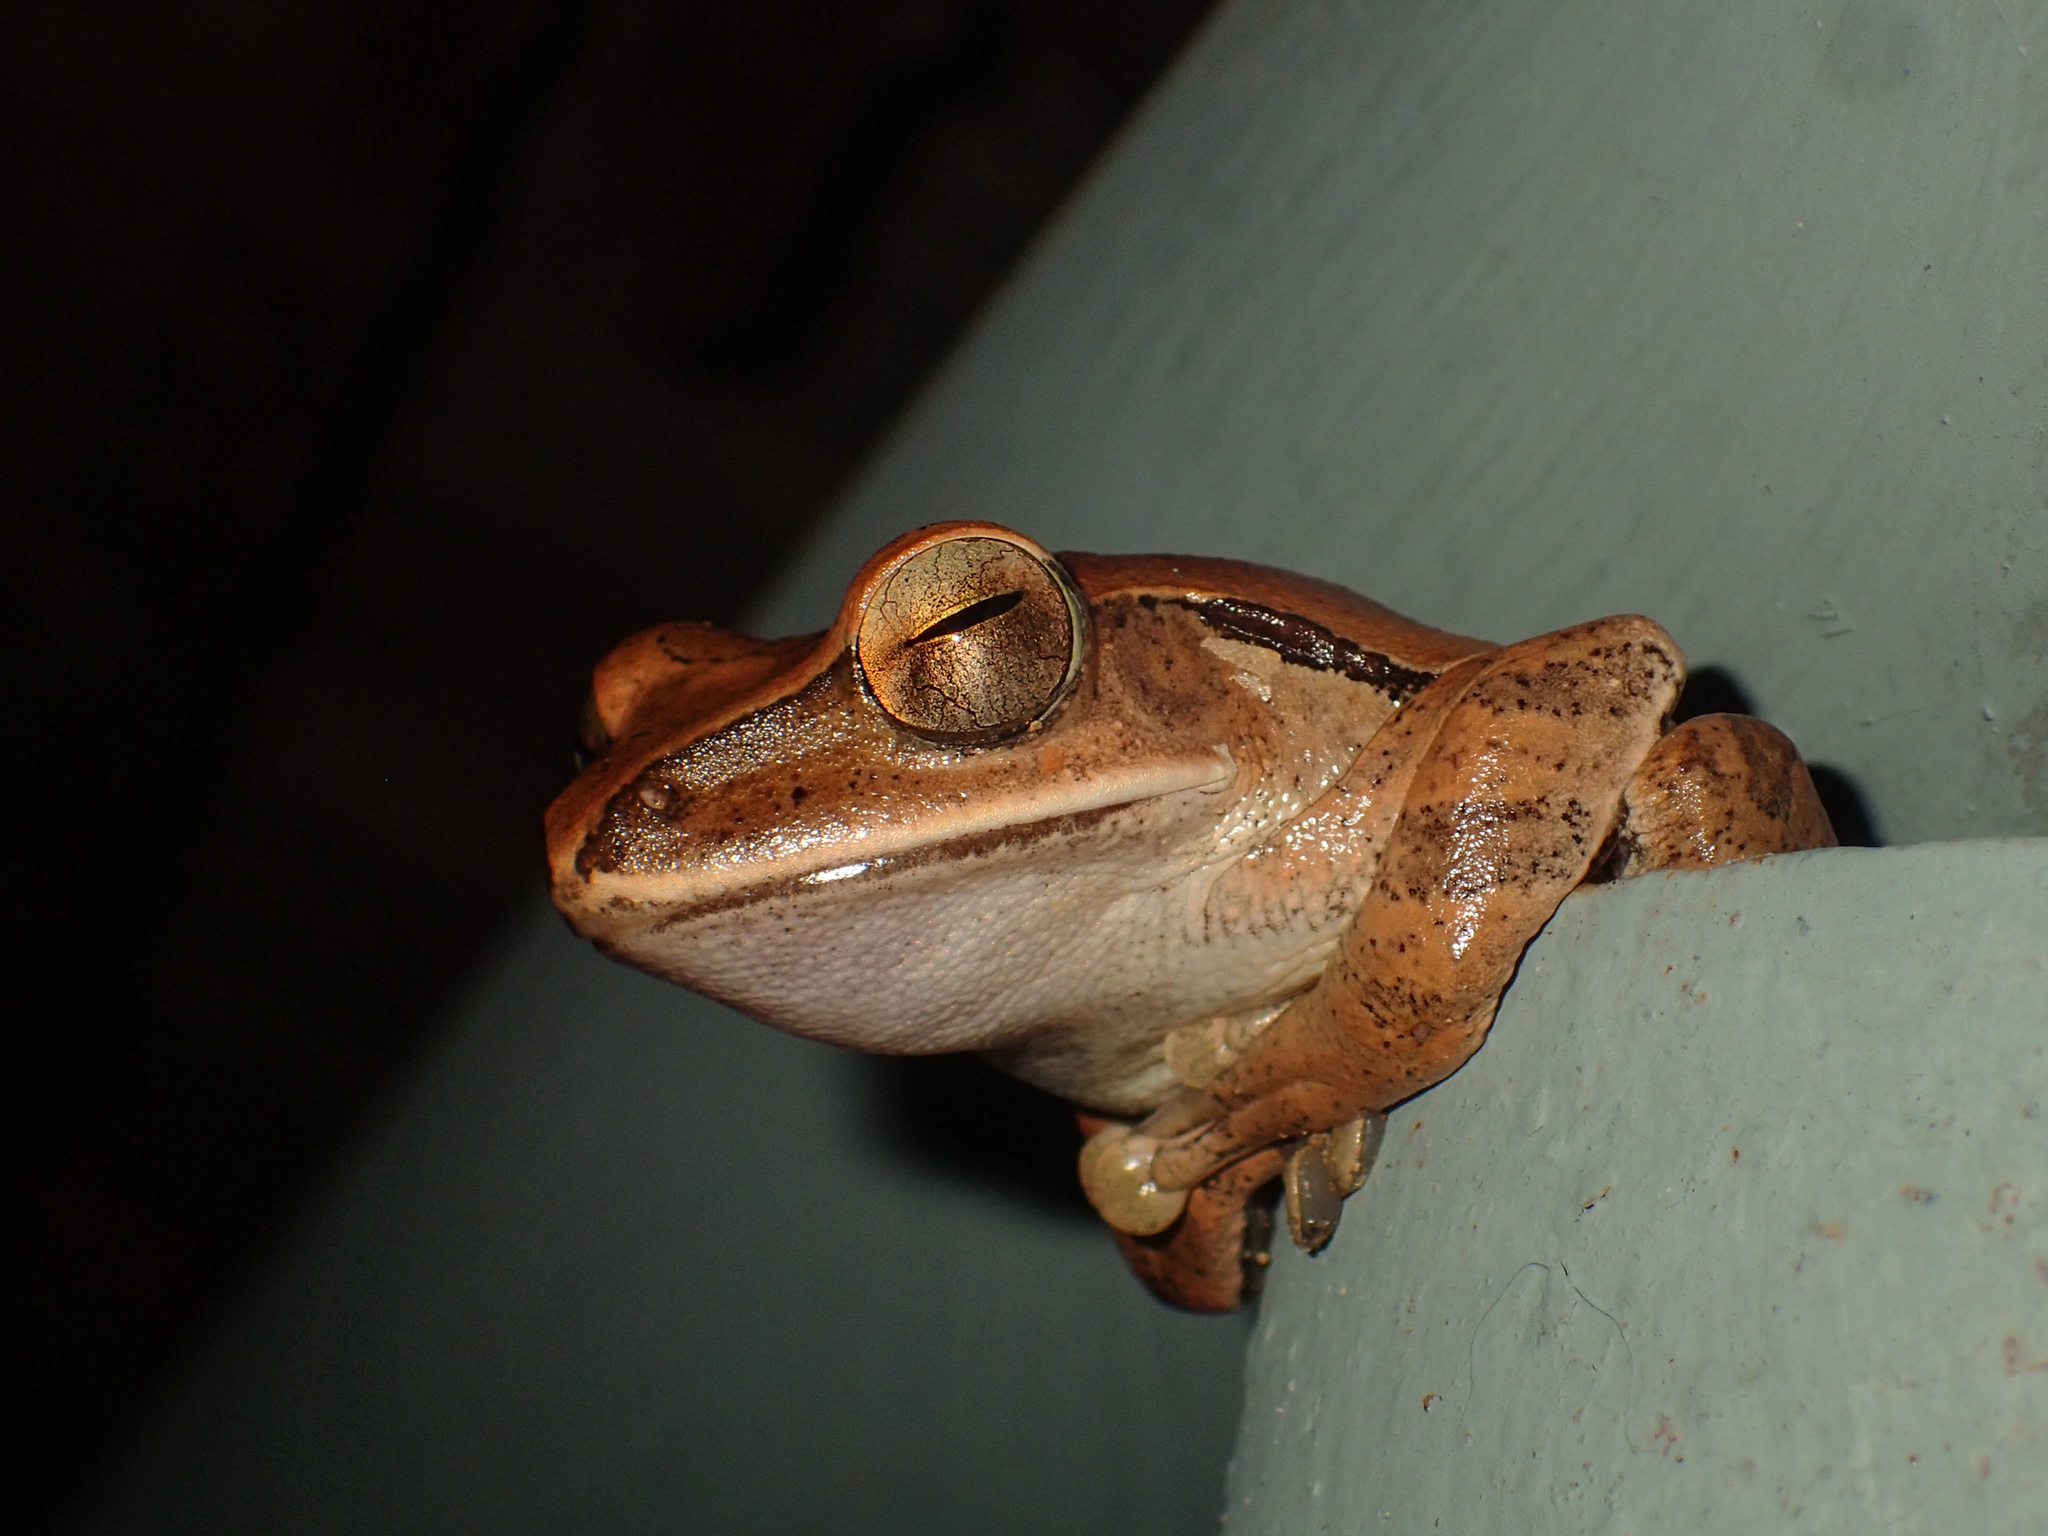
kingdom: Animalia
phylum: Chordata
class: Amphibia
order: Anura
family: Rhacophoridae
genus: Polypedates
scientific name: Polypedates megacephalus
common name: Hong kong whipping frog
